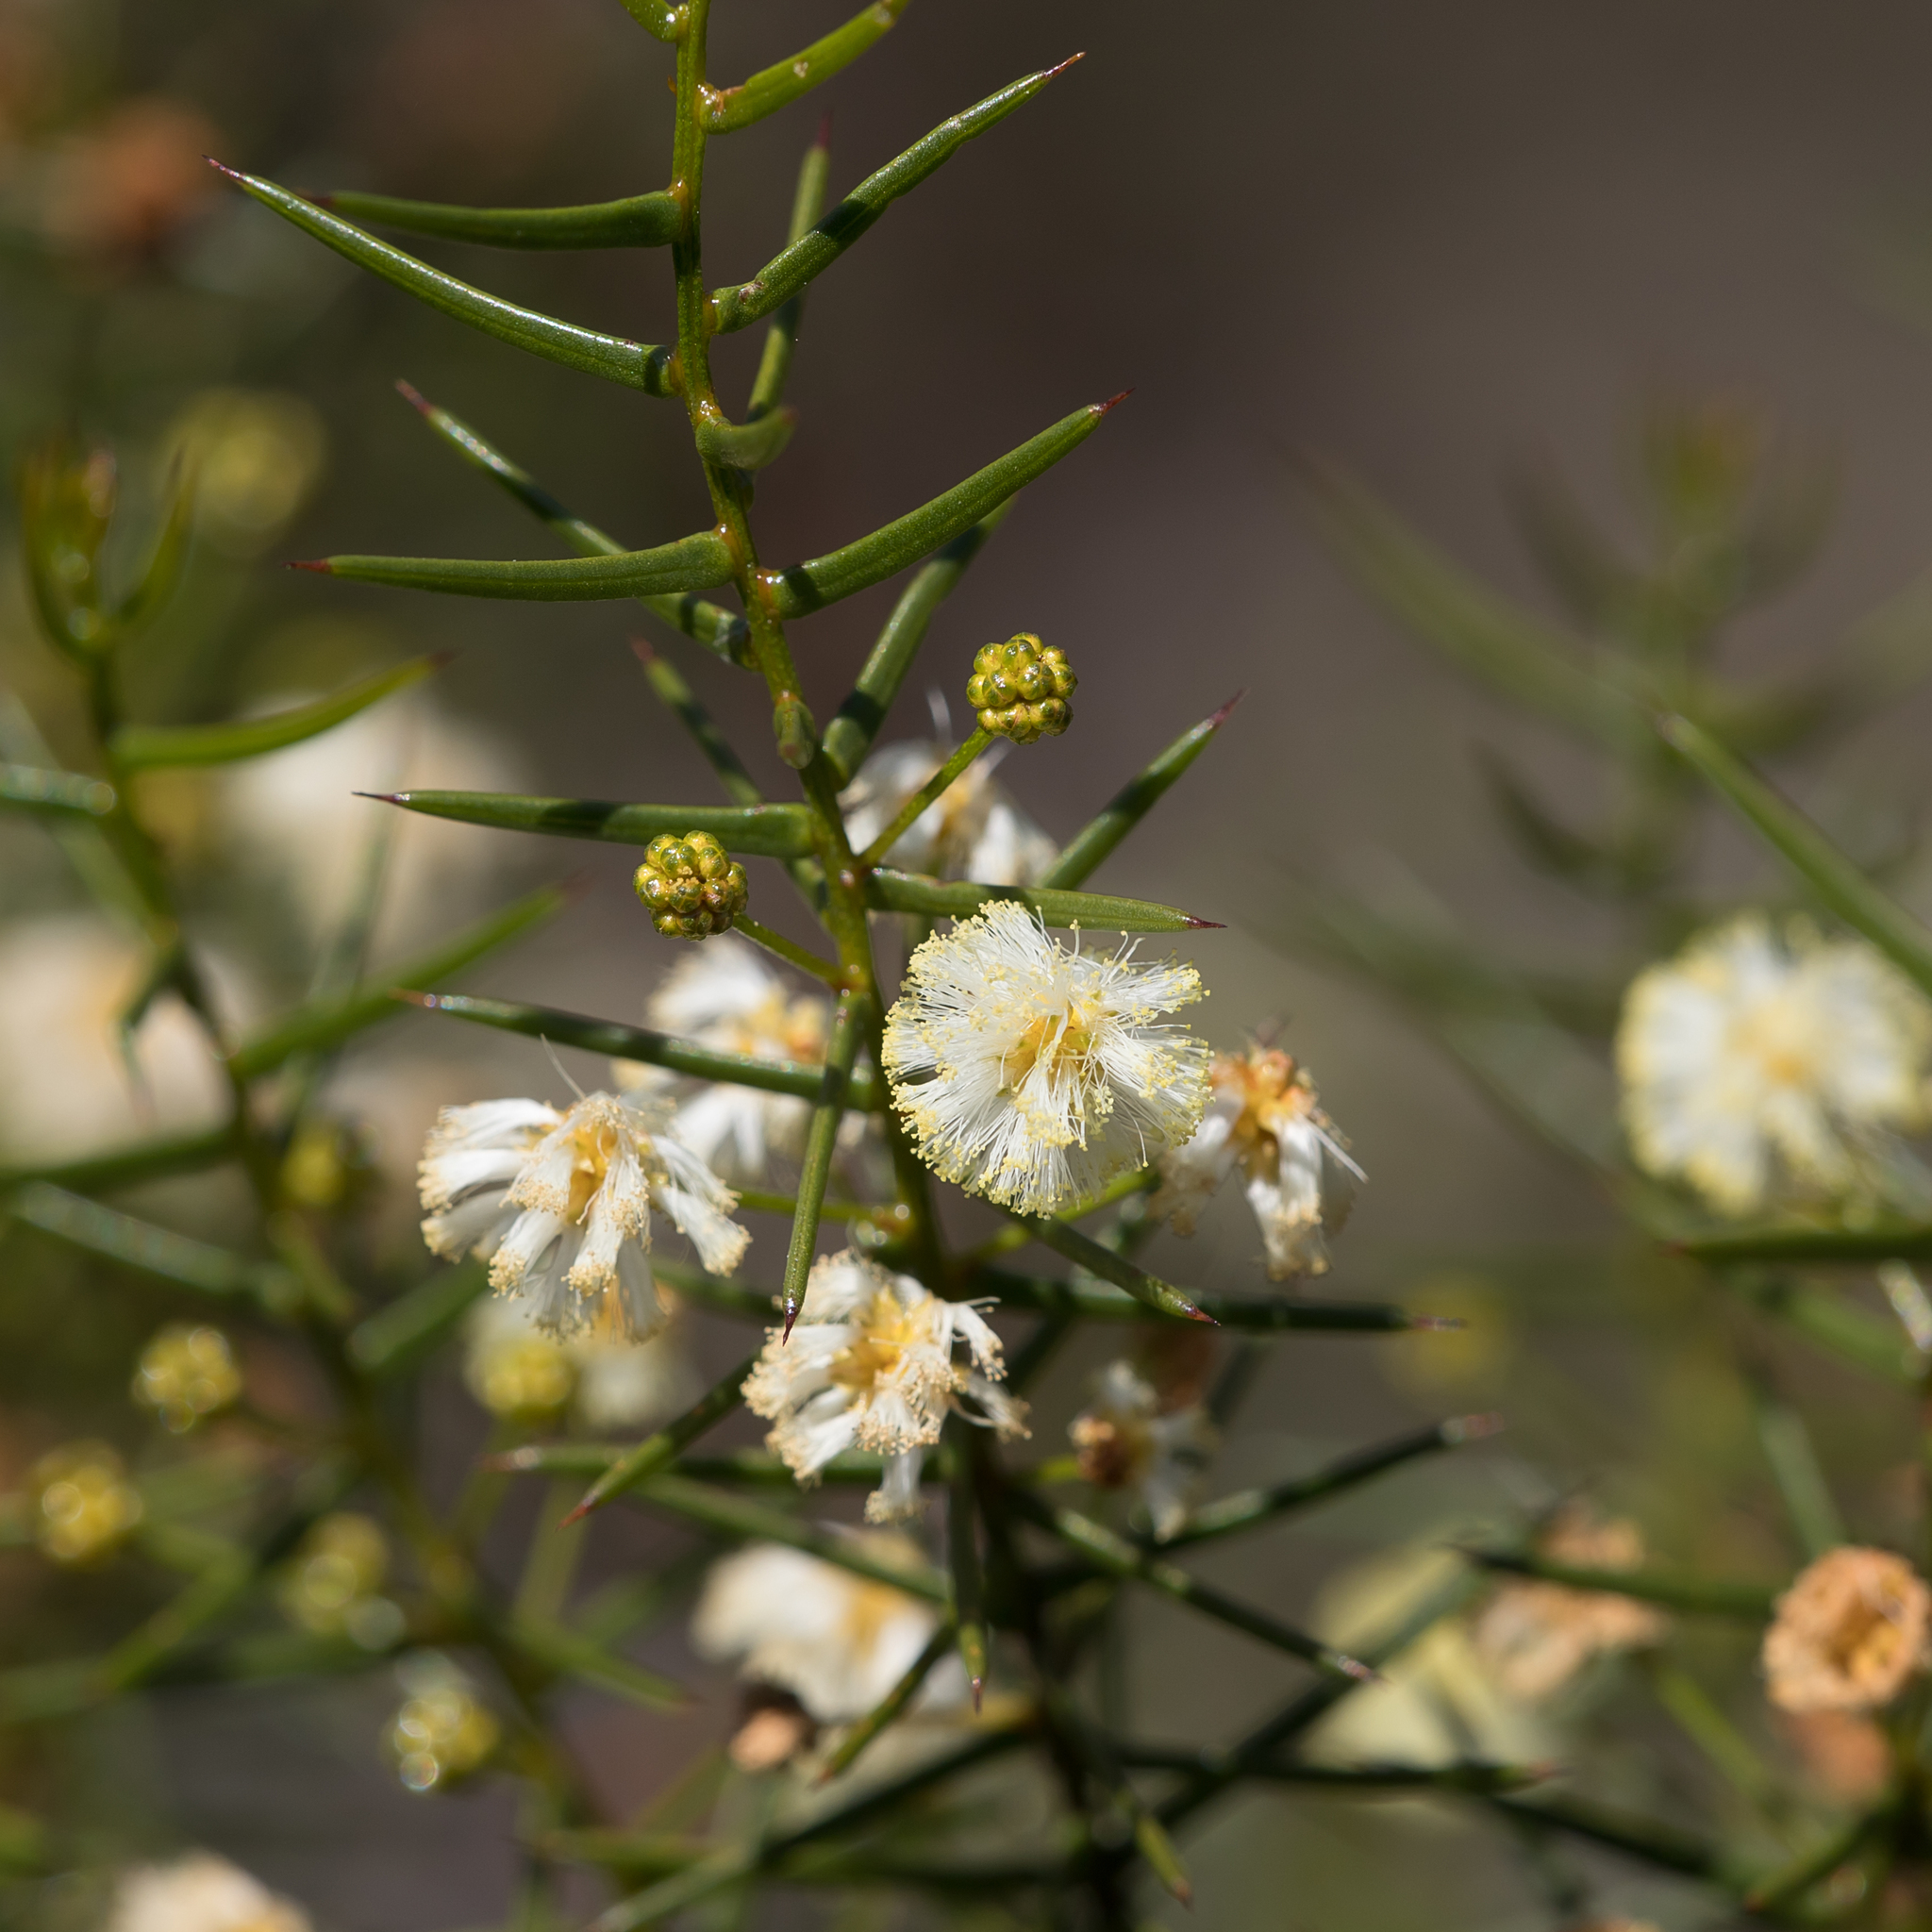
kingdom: Plantae
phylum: Tracheophyta
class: Magnoliopsida
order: Fabales
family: Fabaceae
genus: Acacia
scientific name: Acacia rupicola
